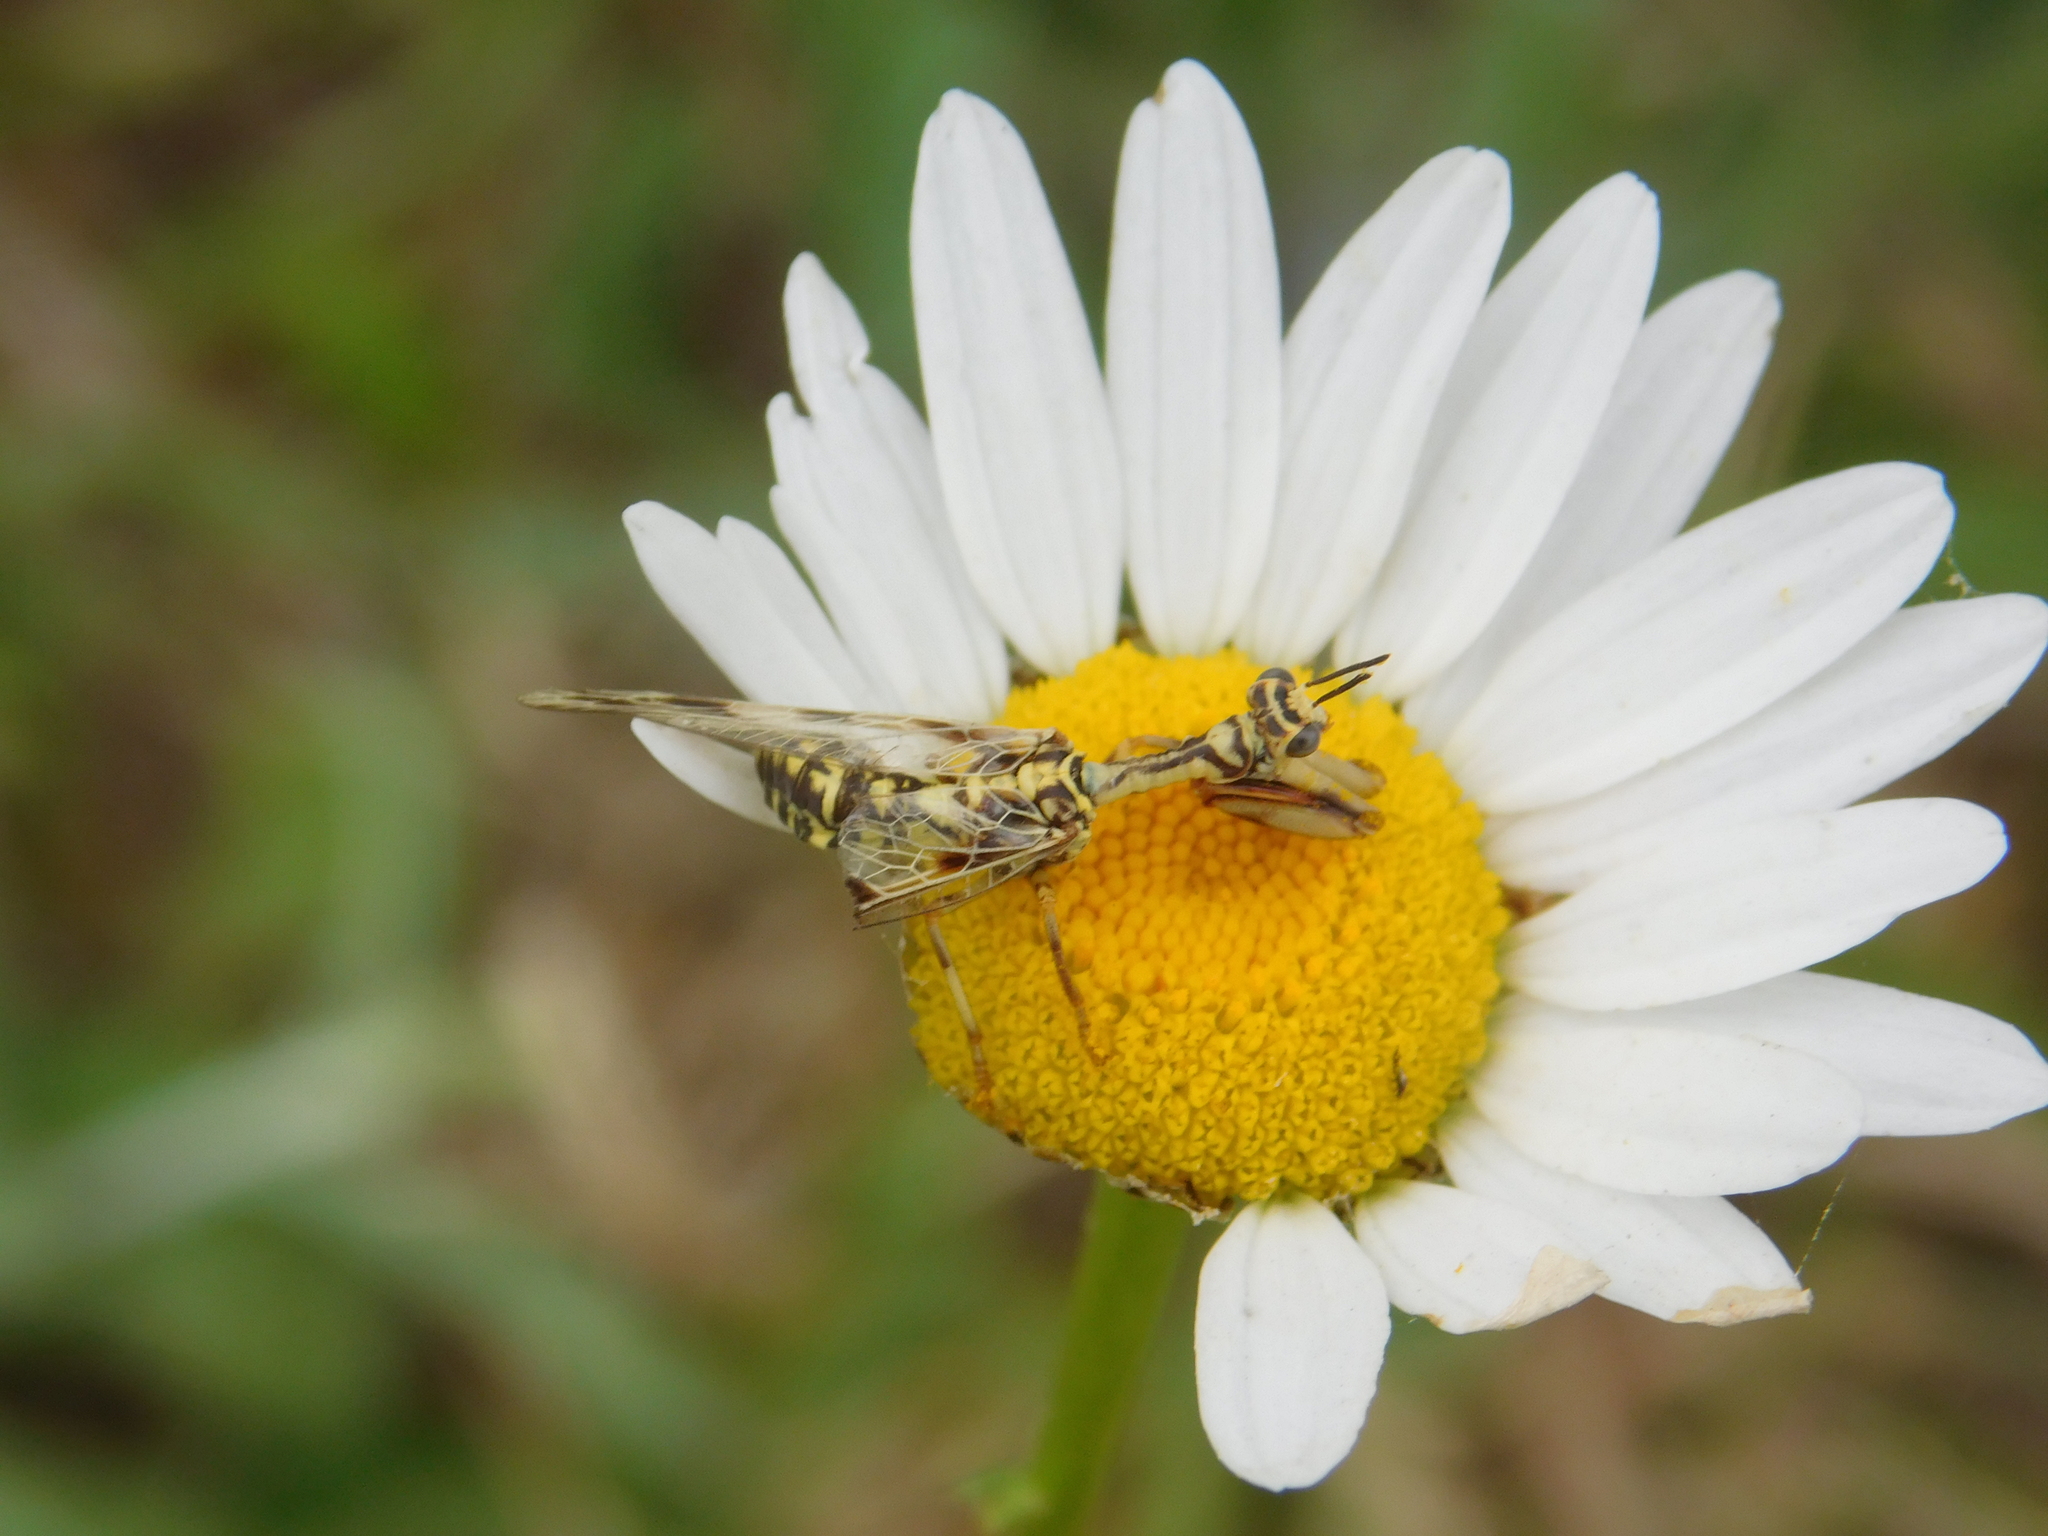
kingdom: Animalia
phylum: Arthropoda
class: Insecta
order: Neuroptera
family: Mantispidae
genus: Paramantispa
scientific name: Paramantispa ambusta
